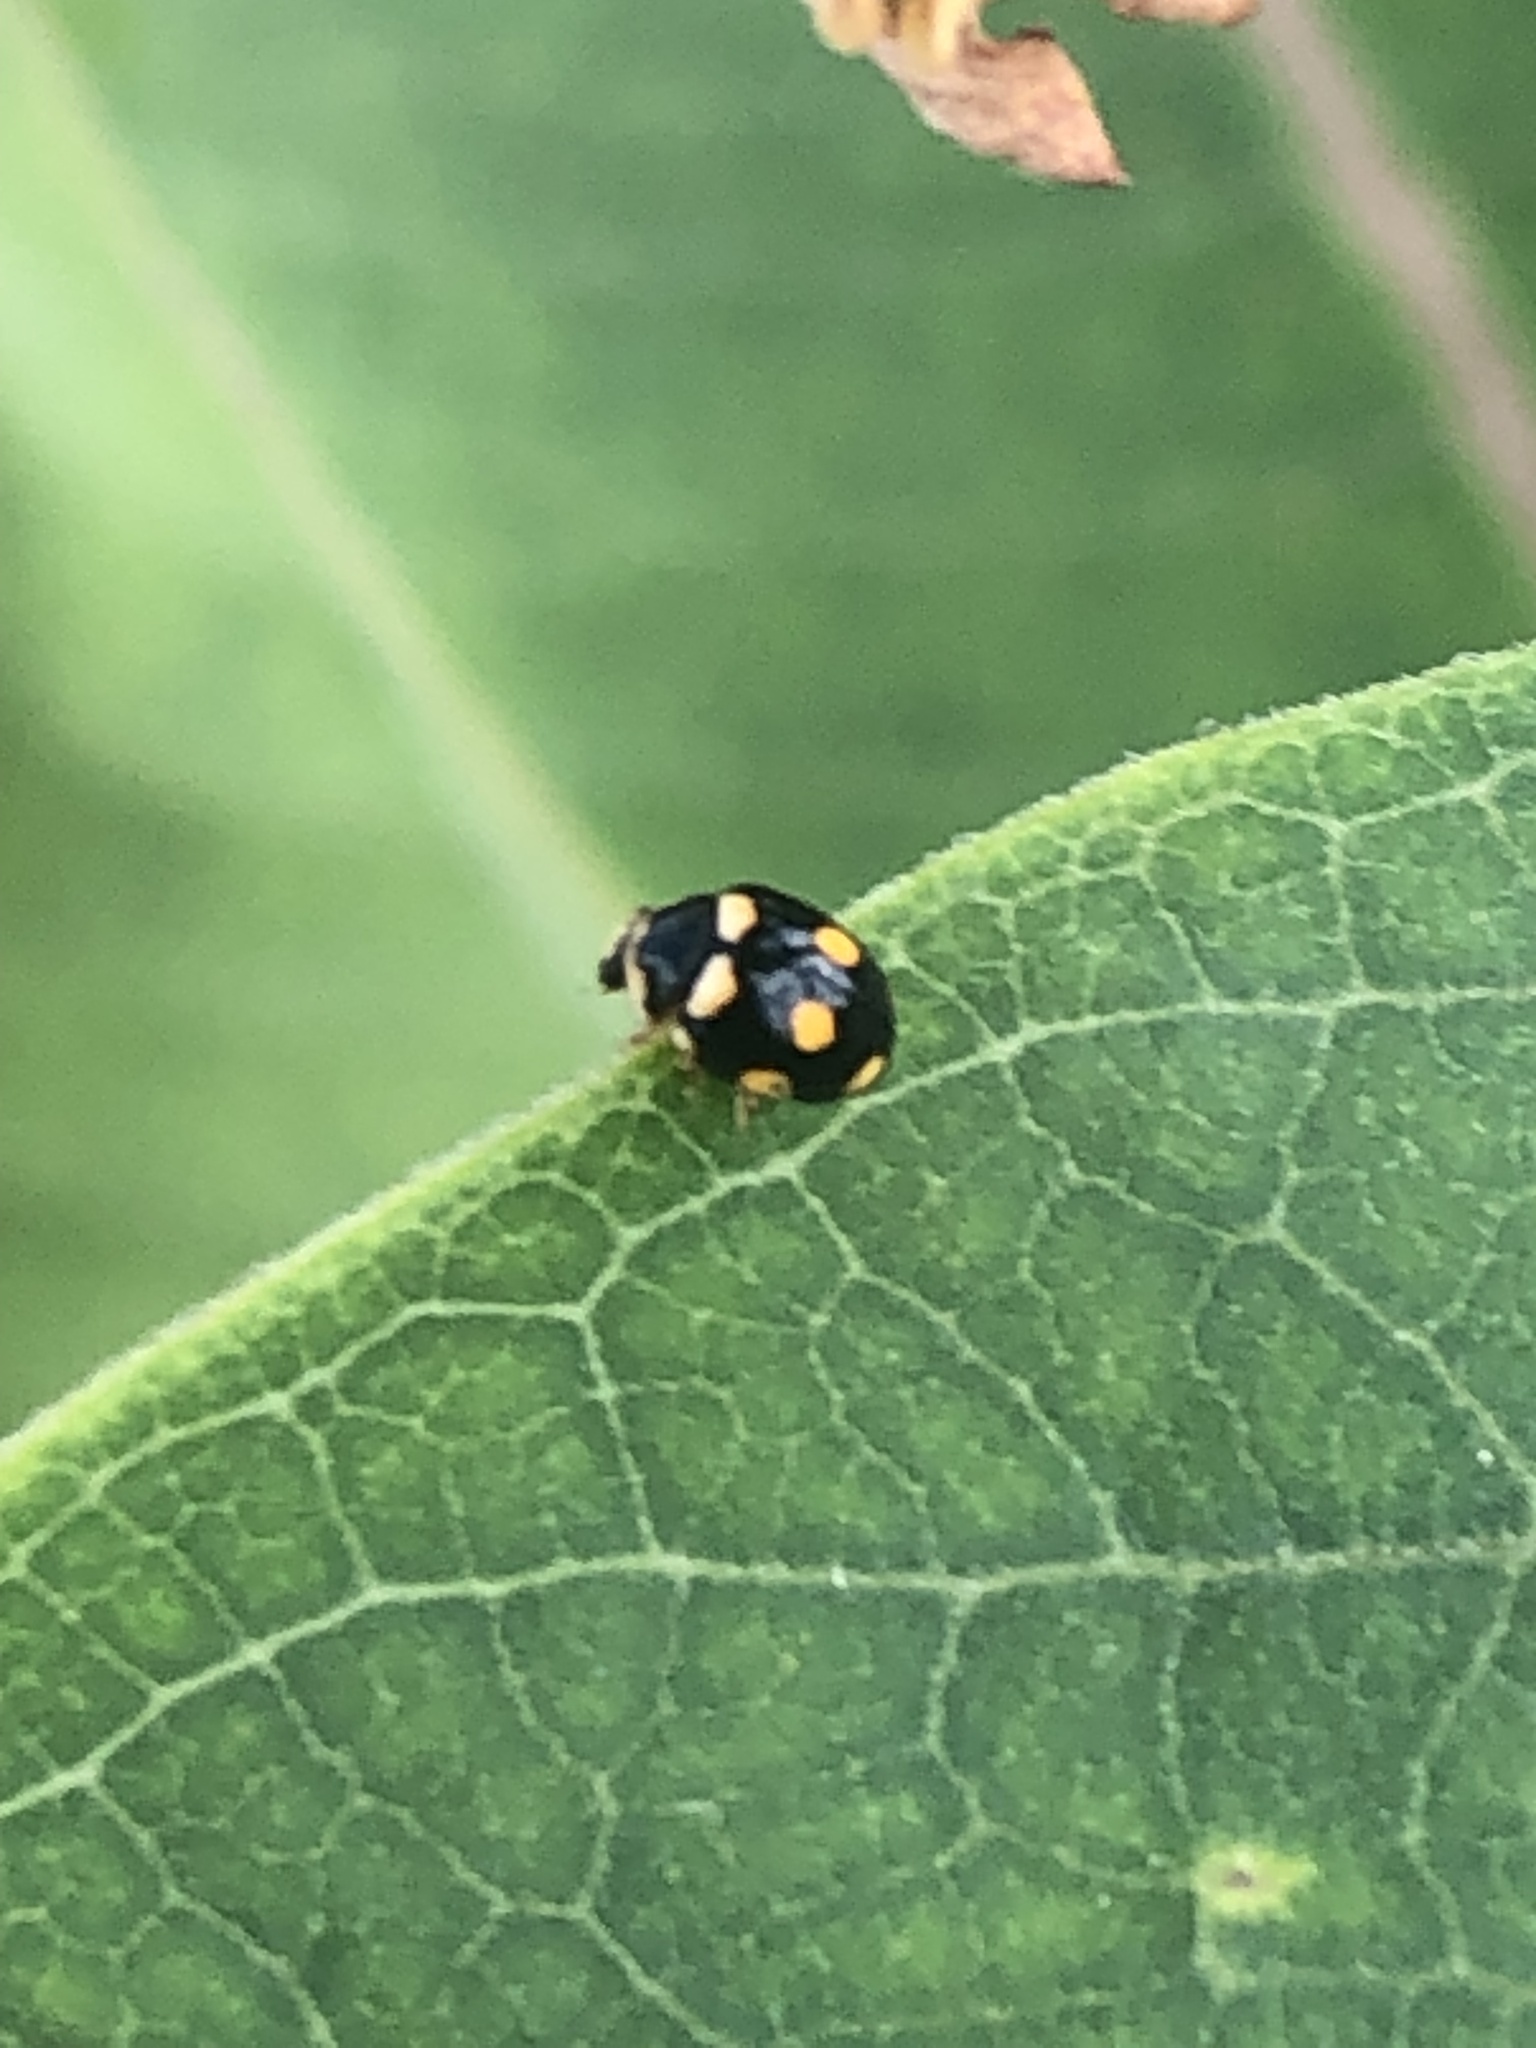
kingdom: Animalia
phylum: Arthropoda
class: Insecta
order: Coleoptera
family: Coccinellidae
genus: Brachiacantha
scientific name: Brachiacantha ursina
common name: Ursine spurleg lady beetle
